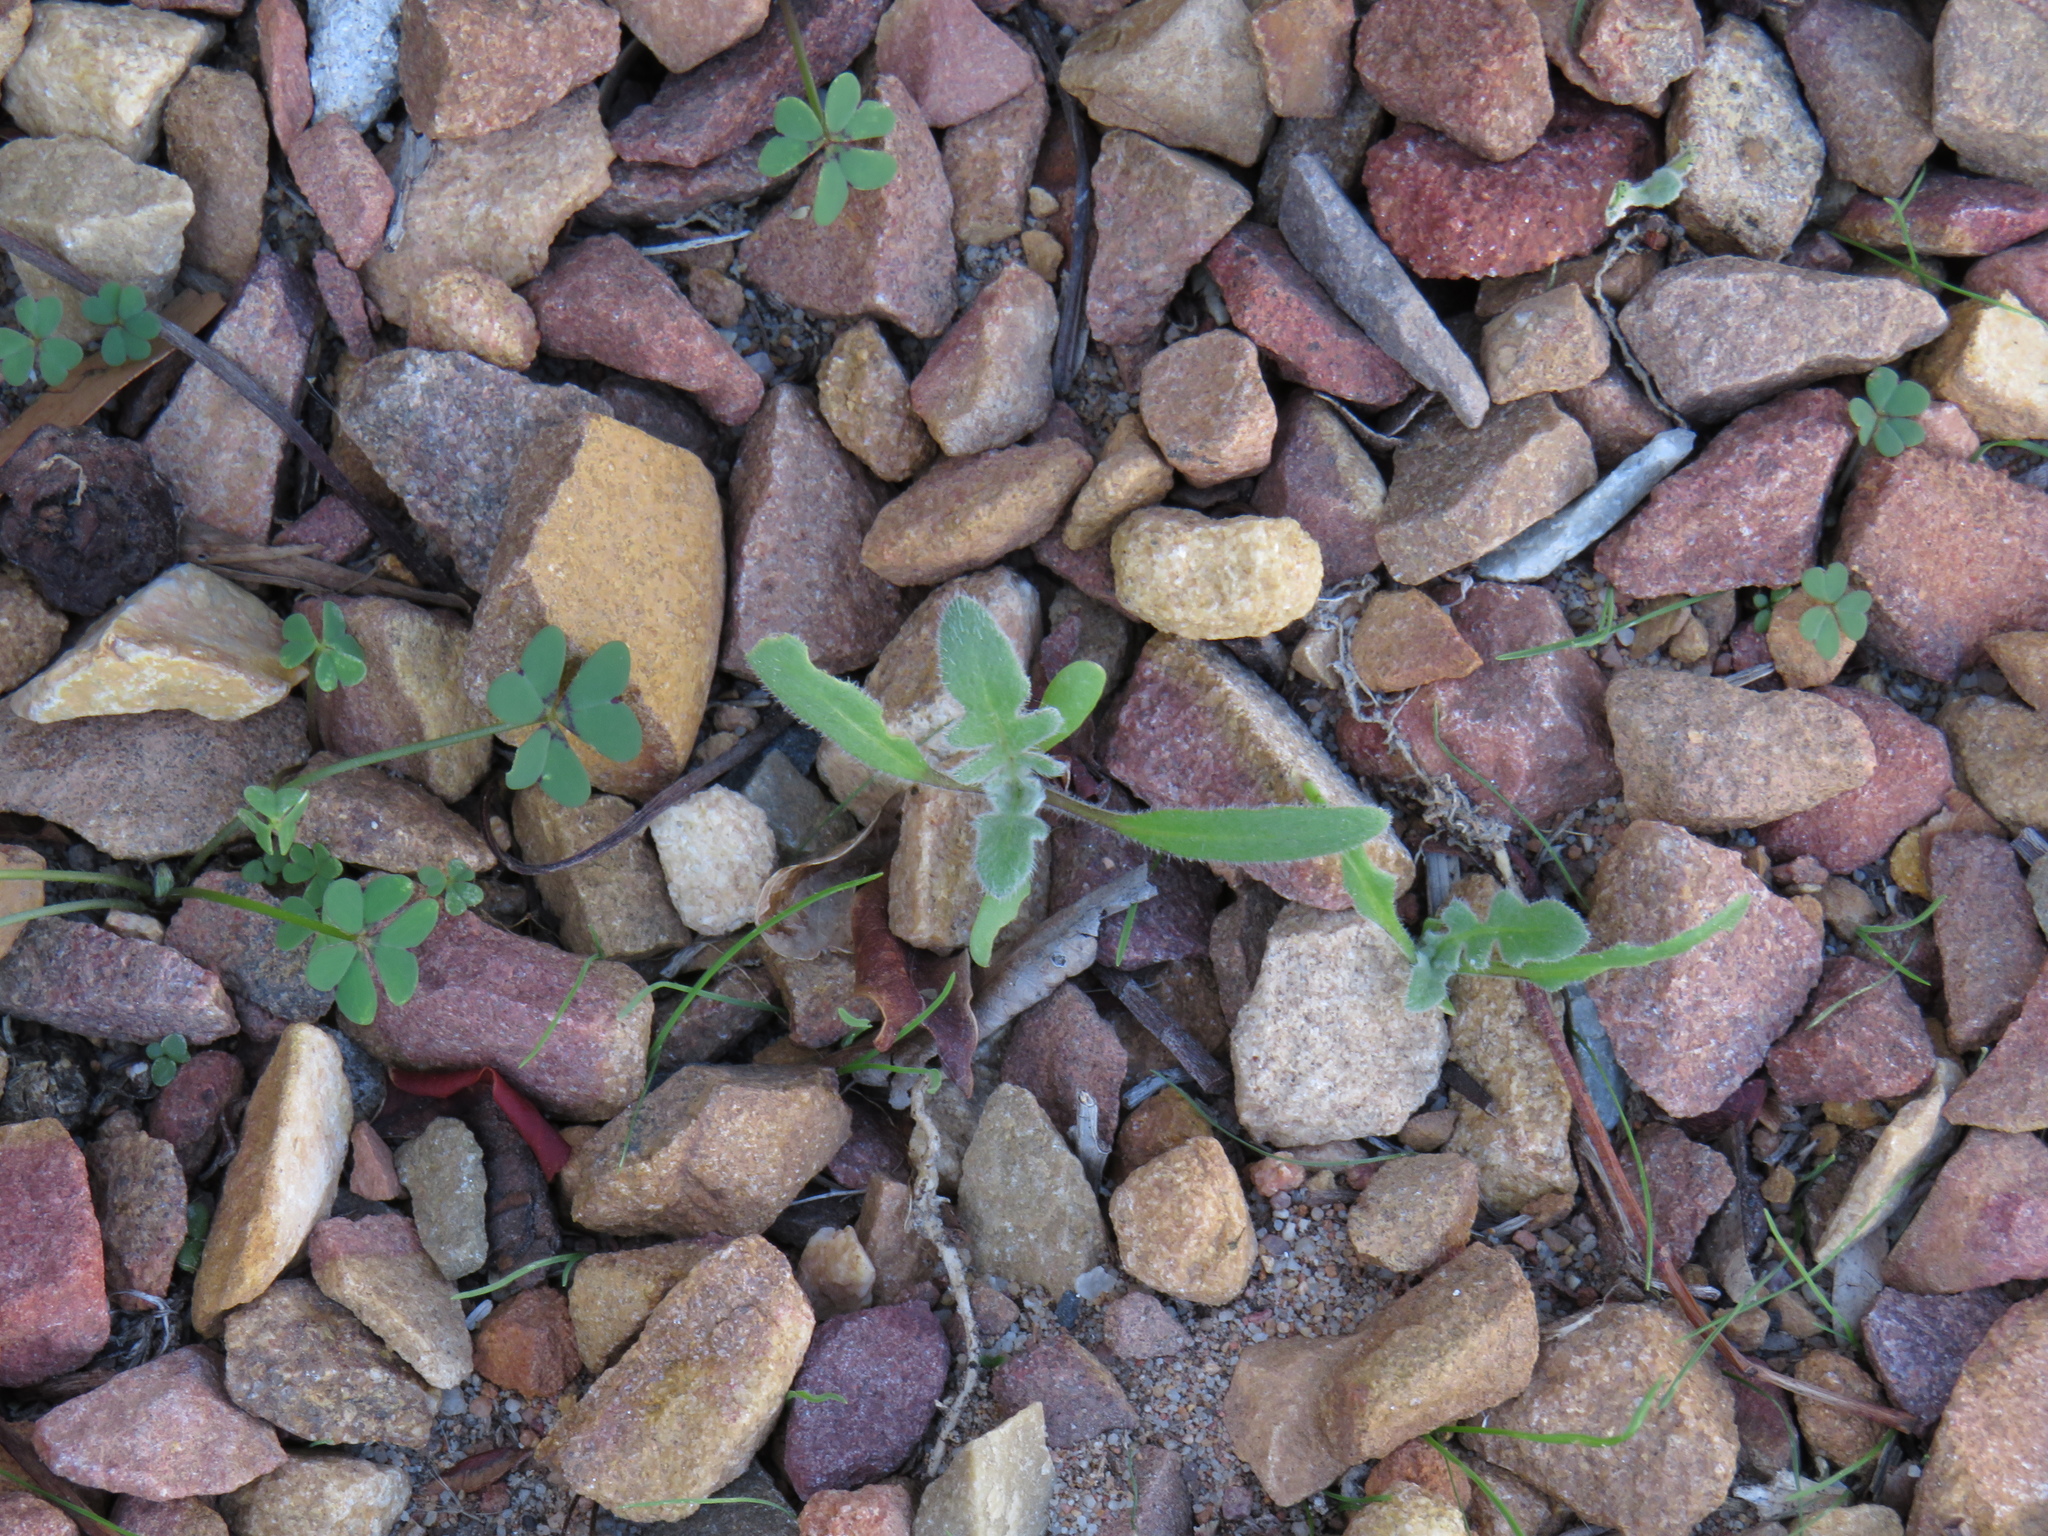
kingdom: Plantae
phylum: Tracheophyta
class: Magnoliopsida
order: Asterales
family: Asteraceae
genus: Arctotheca
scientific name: Arctotheca calendula
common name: Capeweed
